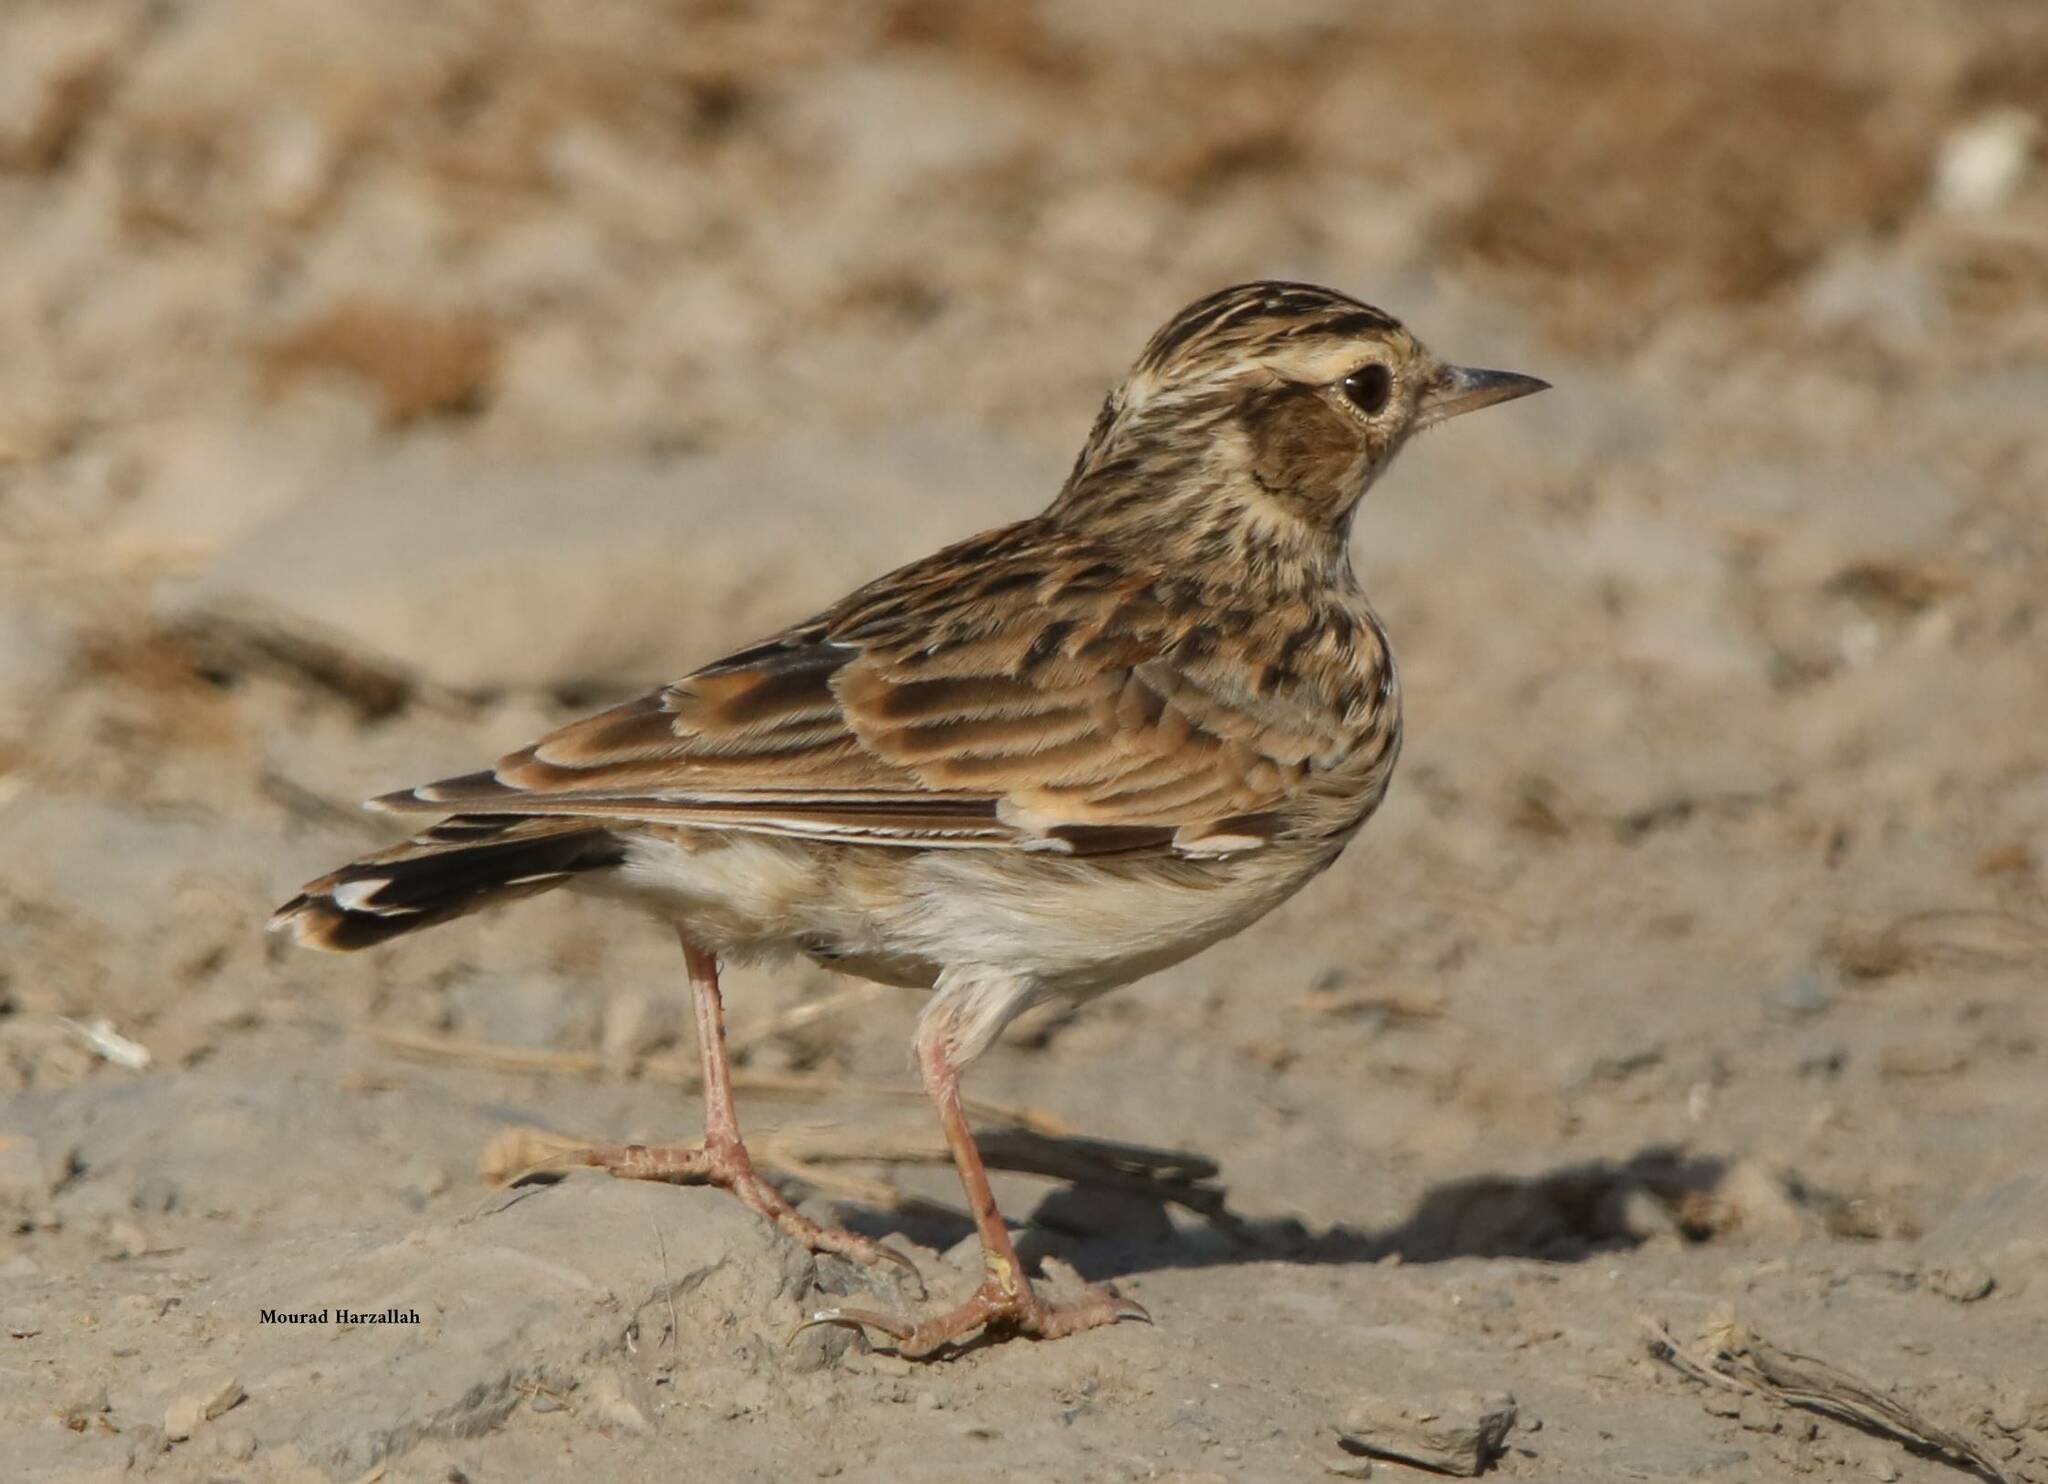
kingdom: Animalia
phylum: Chordata
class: Aves
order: Passeriformes
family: Alaudidae
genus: Lullula
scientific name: Lullula arborea
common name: Woodlark
